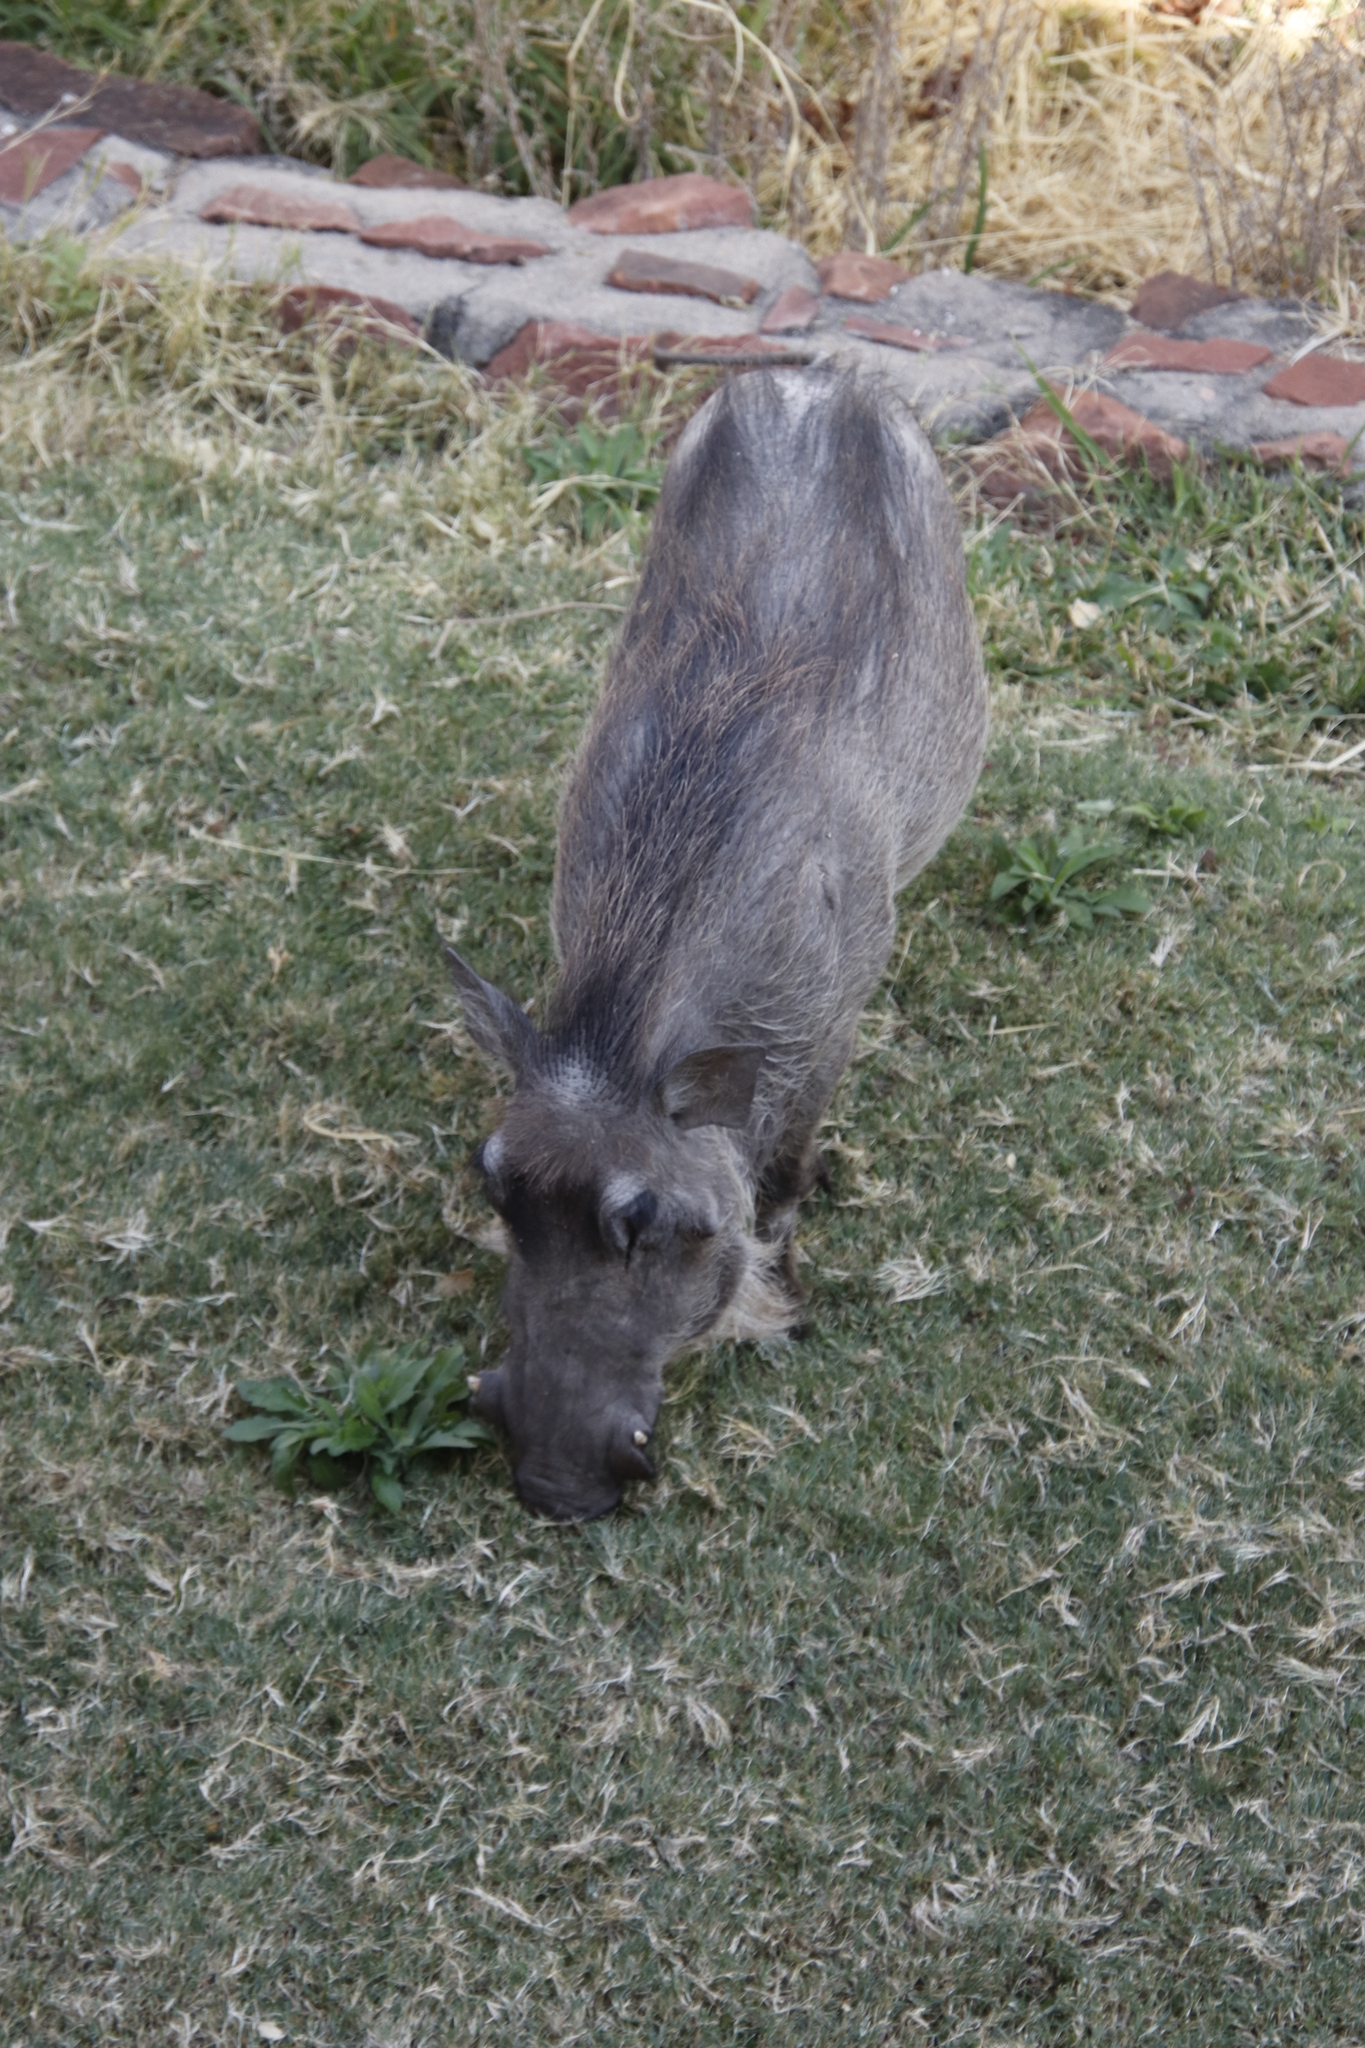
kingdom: Animalia
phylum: Chordata
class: Mammalia
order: Artiodactyla
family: Suidae
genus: Phacochoerus
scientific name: Phacochoerus africanus
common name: Common warthog
